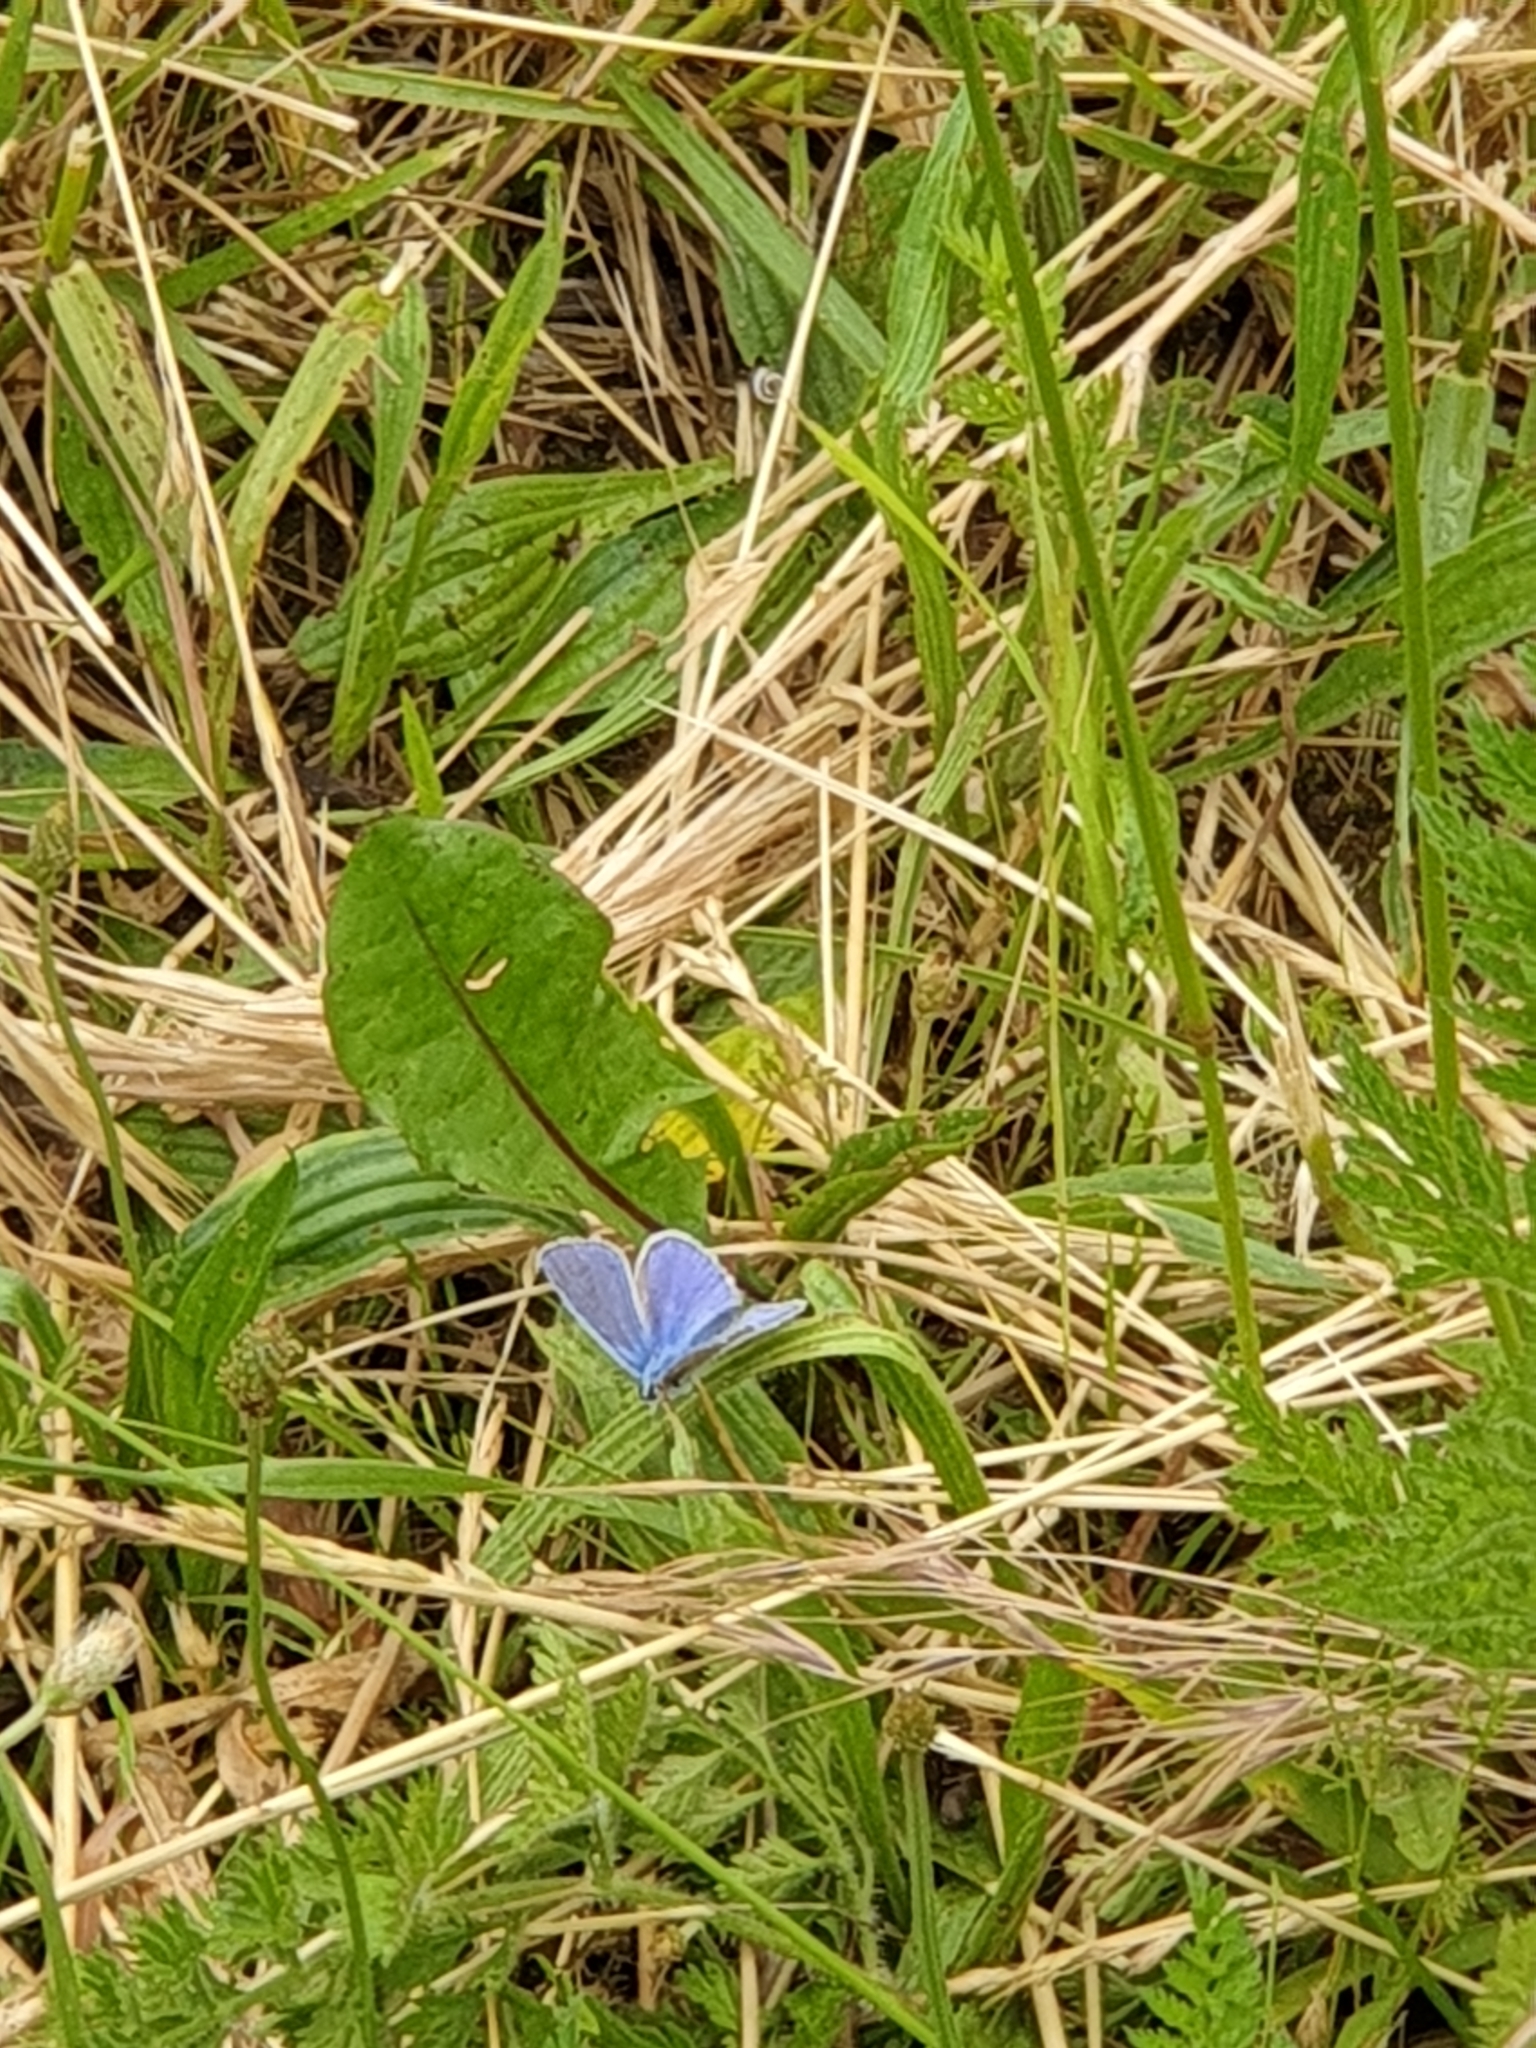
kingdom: Animalia
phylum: Arthropoda
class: Insecta
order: Lepidoptera
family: Lycaenidae
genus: Polyommatus
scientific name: Polyommatus icarus
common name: Common blue
